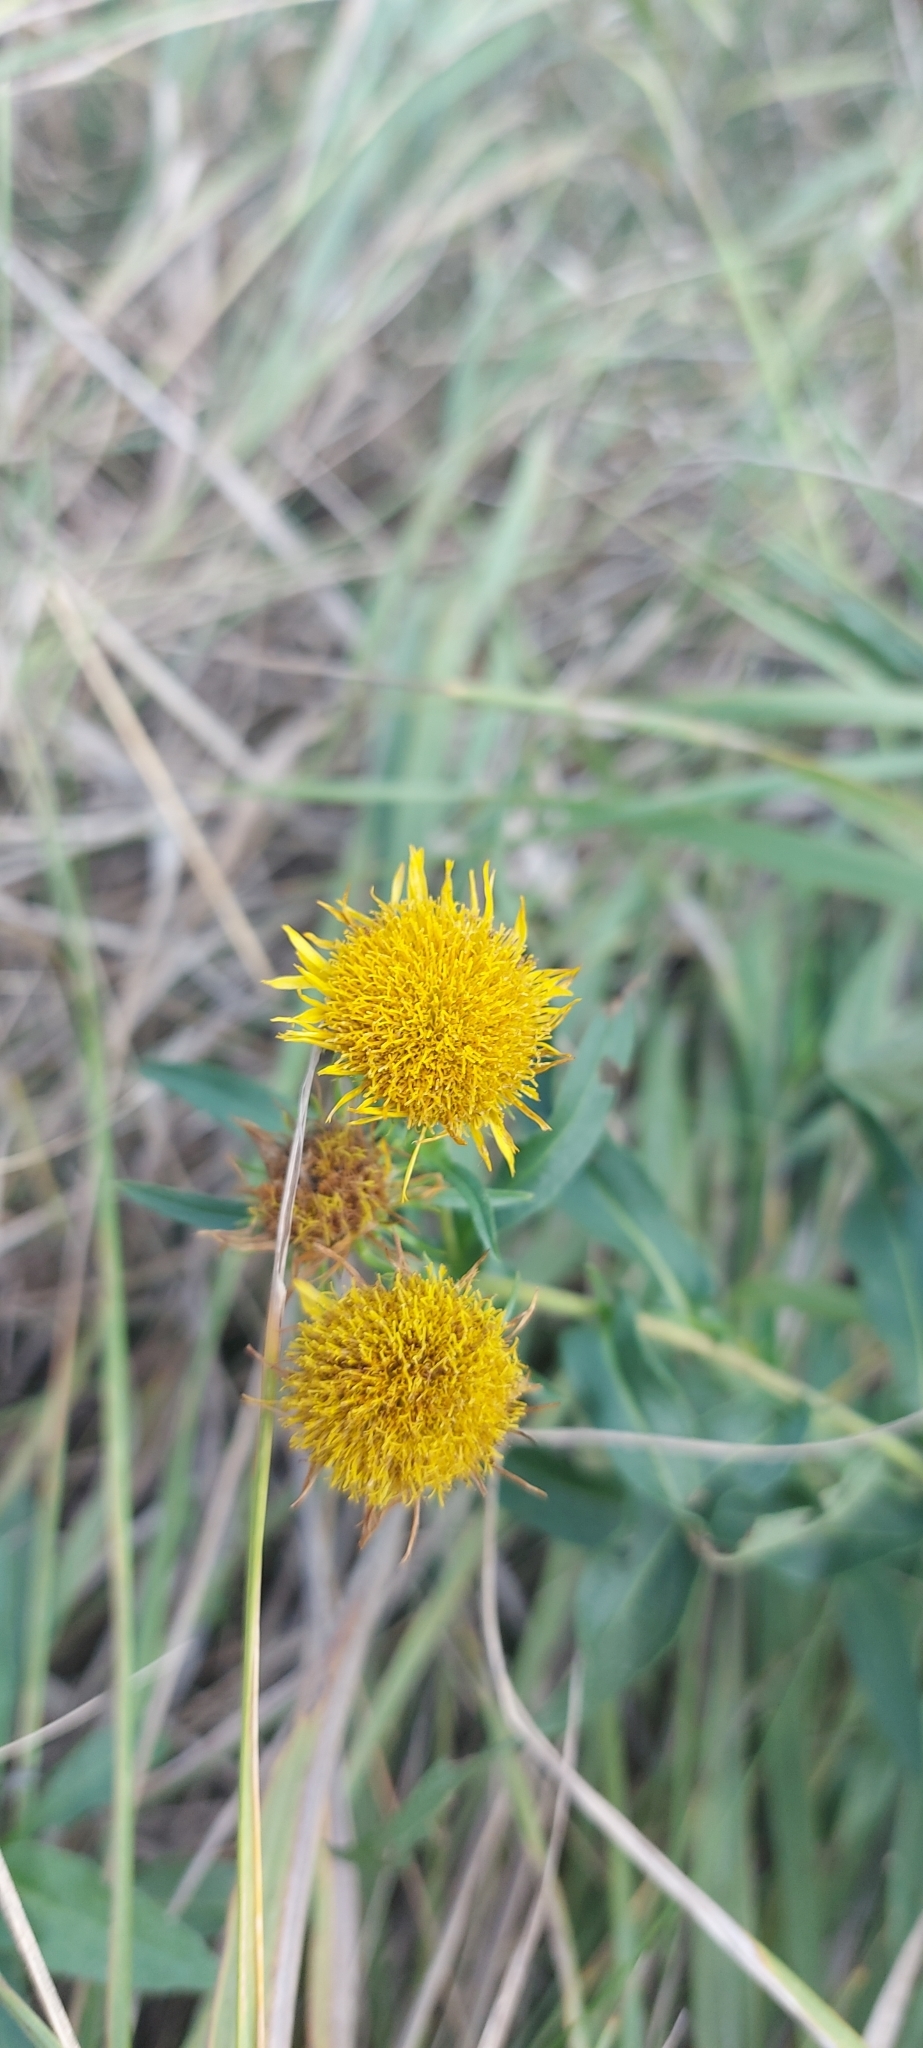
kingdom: Plantae
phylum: Tracheophyta
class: Magnoliopsida
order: Asterales
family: Asteraceae
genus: Pentanema
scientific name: Pentanema salicinum
